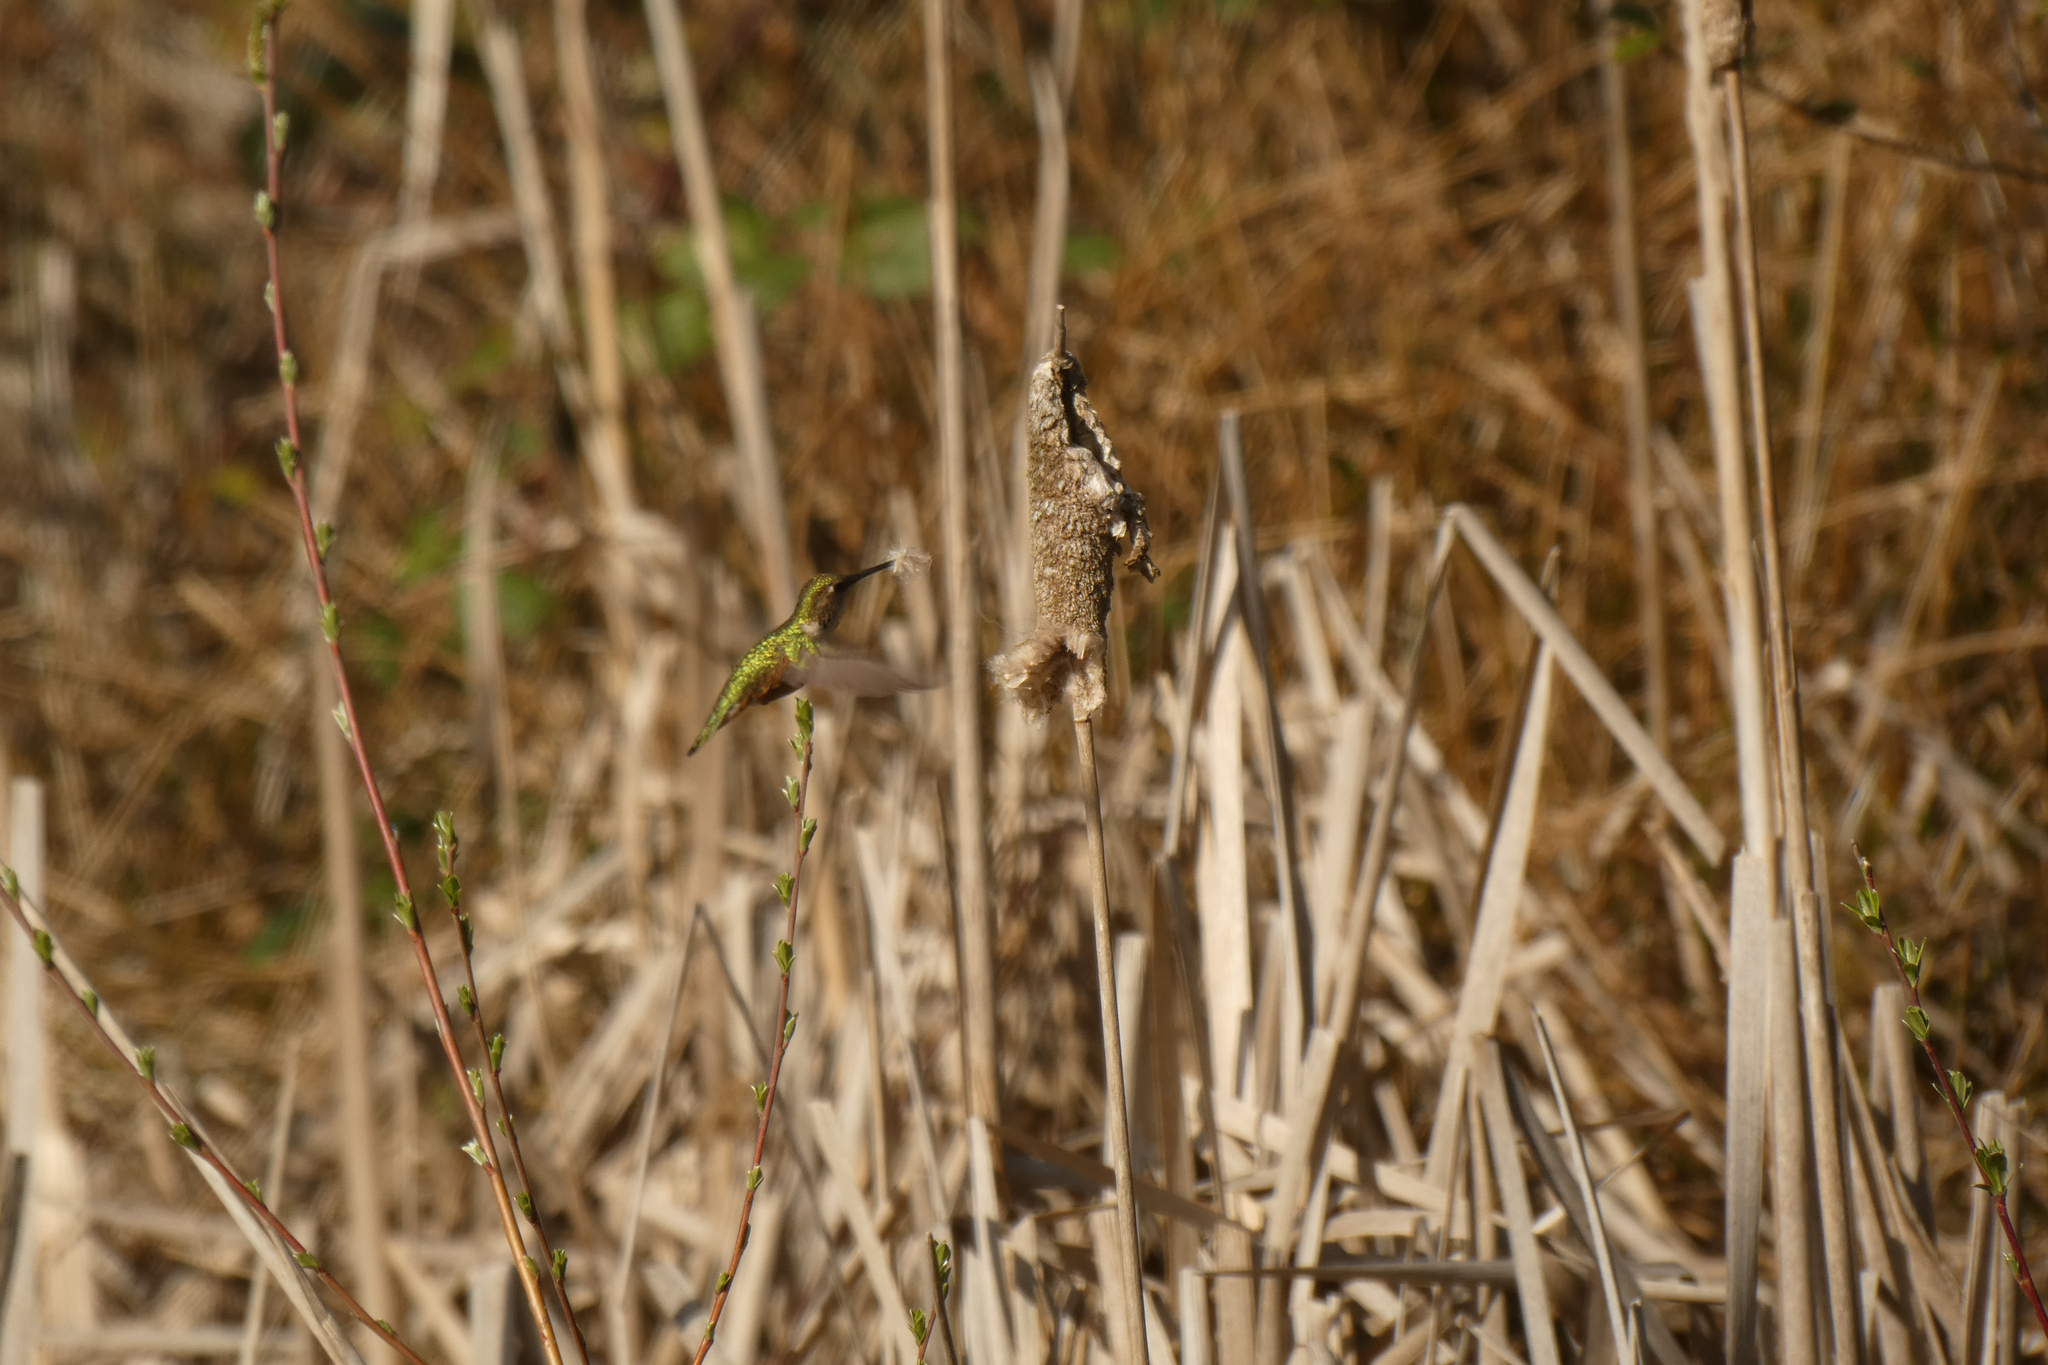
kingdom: Animalia
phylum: Chordata
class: Aves
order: Apodiformes
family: Trochilidae
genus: Selasphorus
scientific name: Selasphorus rufus
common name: Rufous hummingbird
